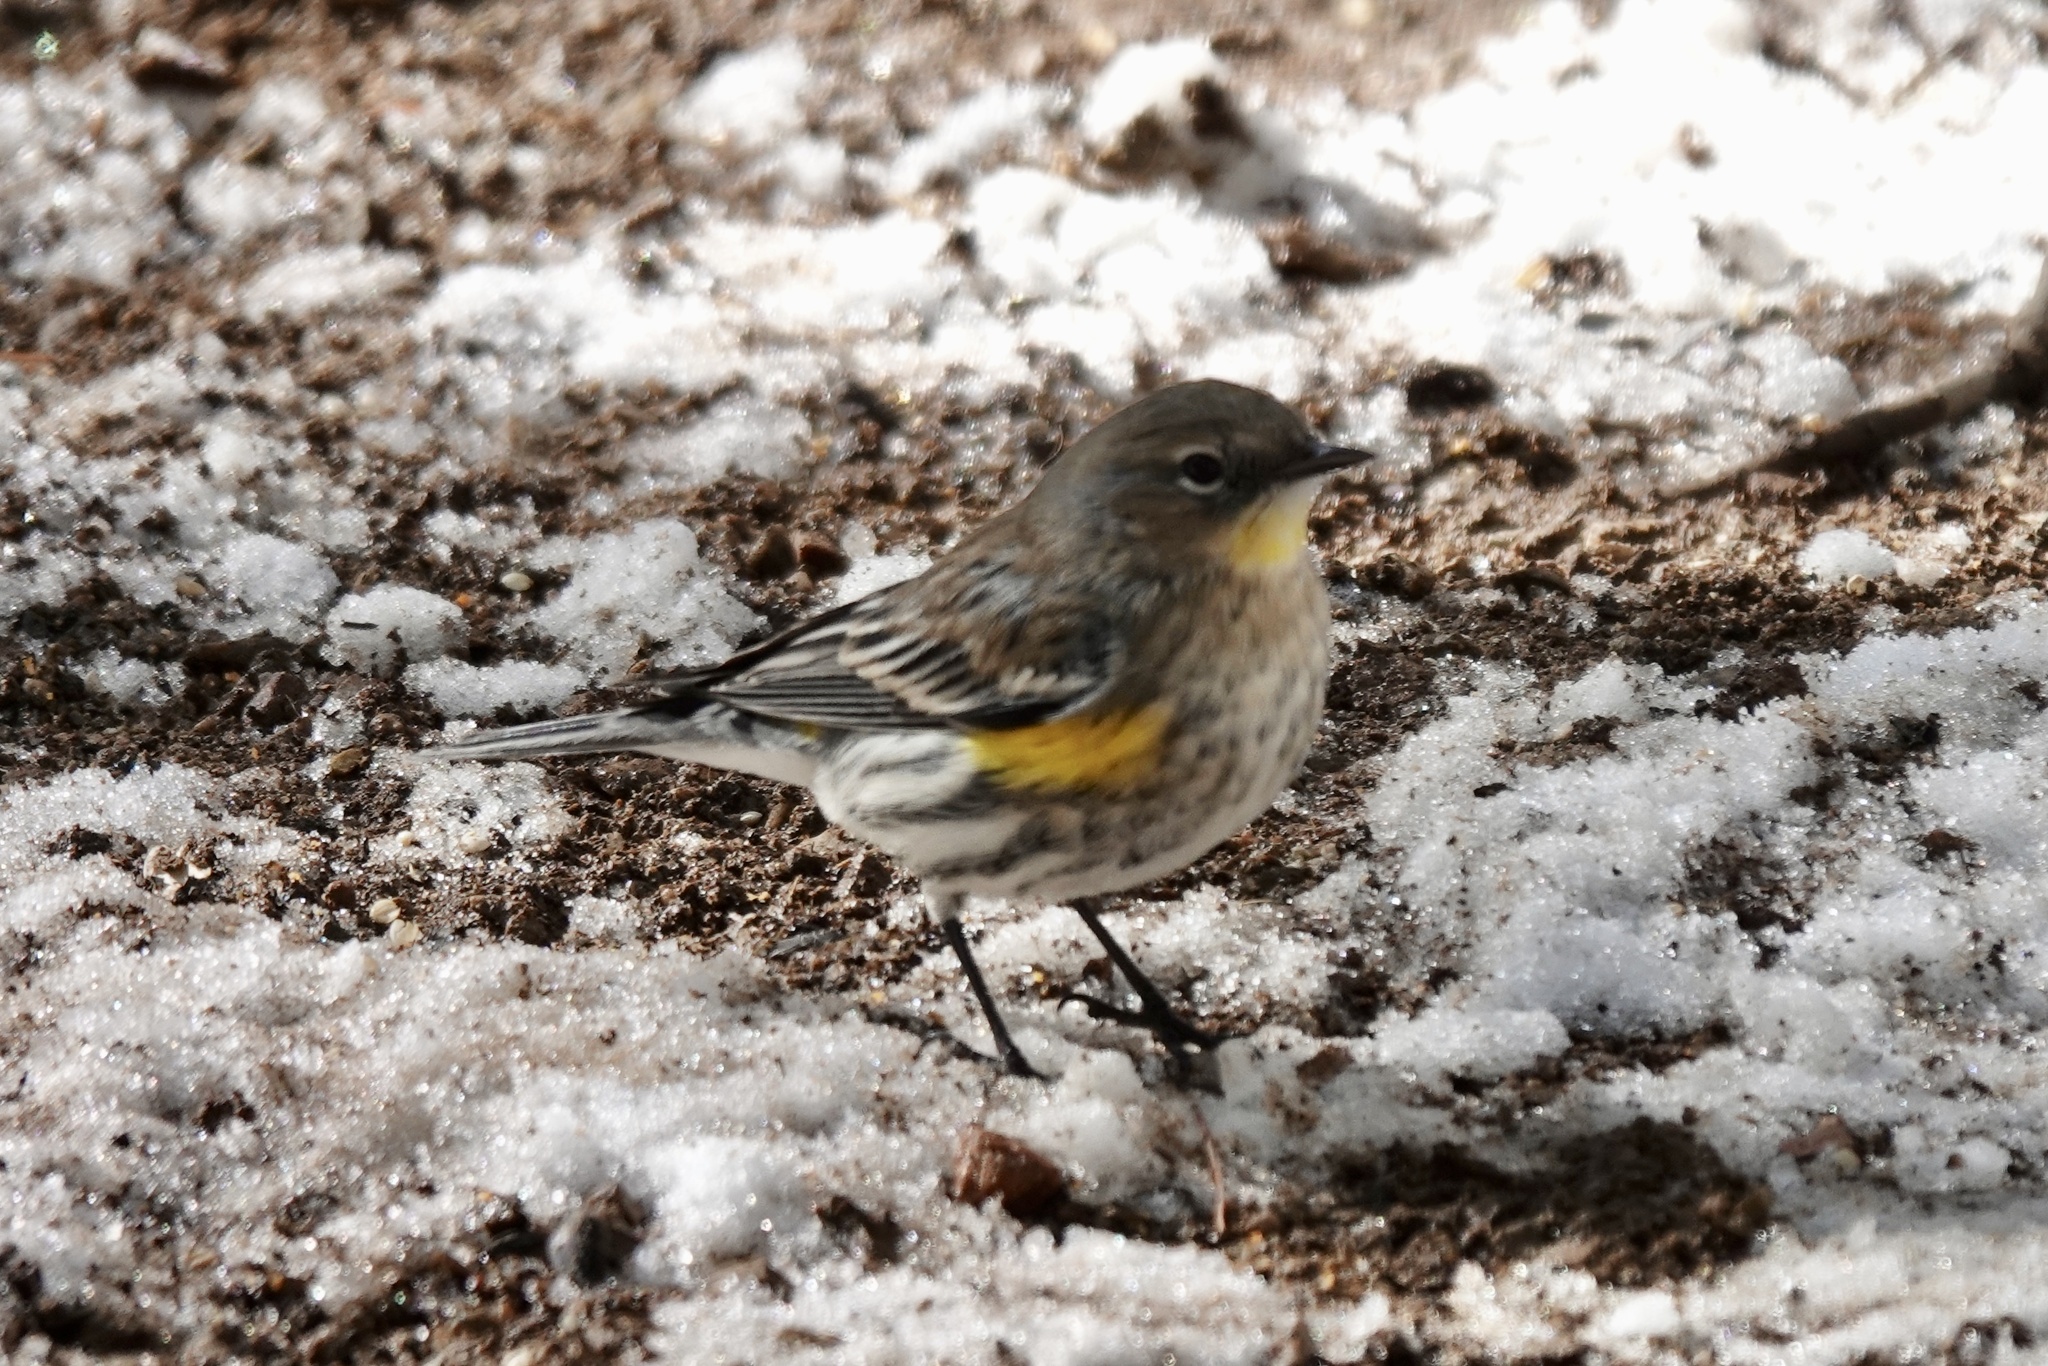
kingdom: Animalia
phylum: Chordata
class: Aves
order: Passeriformes
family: Parulidae
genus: Setophaga
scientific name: Setophaga coronata
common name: Myrtle warbler
